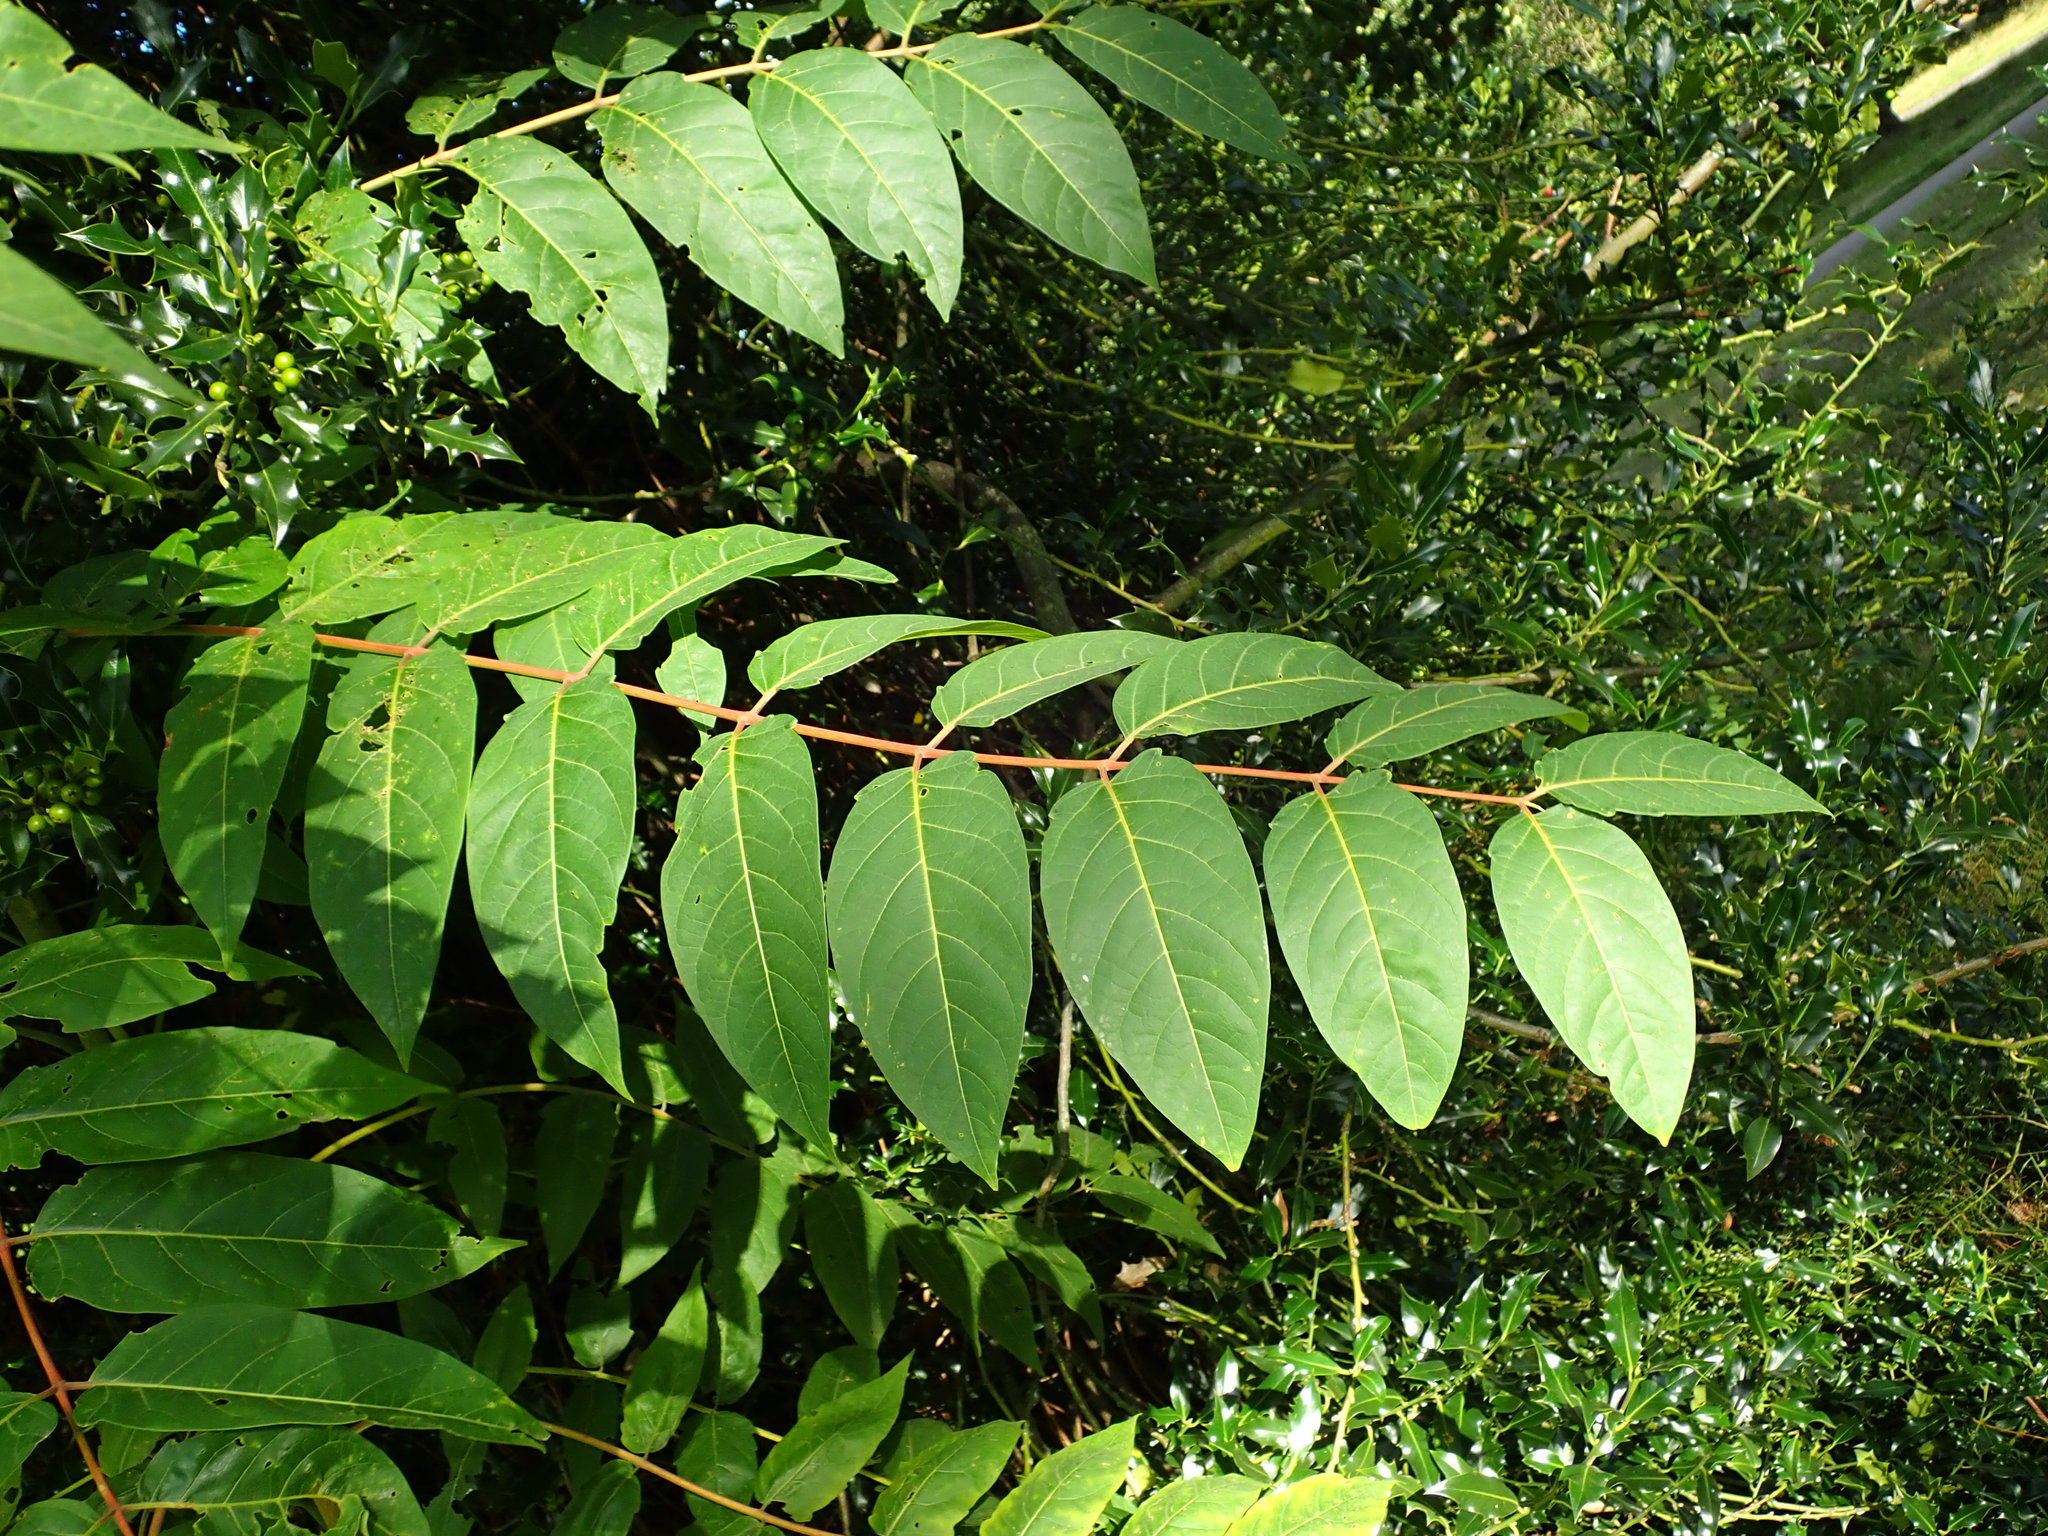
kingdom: Plantae
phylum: Tracheophyta
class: Magnoliopsida
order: Sapindales
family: Simaroubaceae
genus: Ailanthus
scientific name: Ailanthus altissima
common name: Tree-of-heaven
